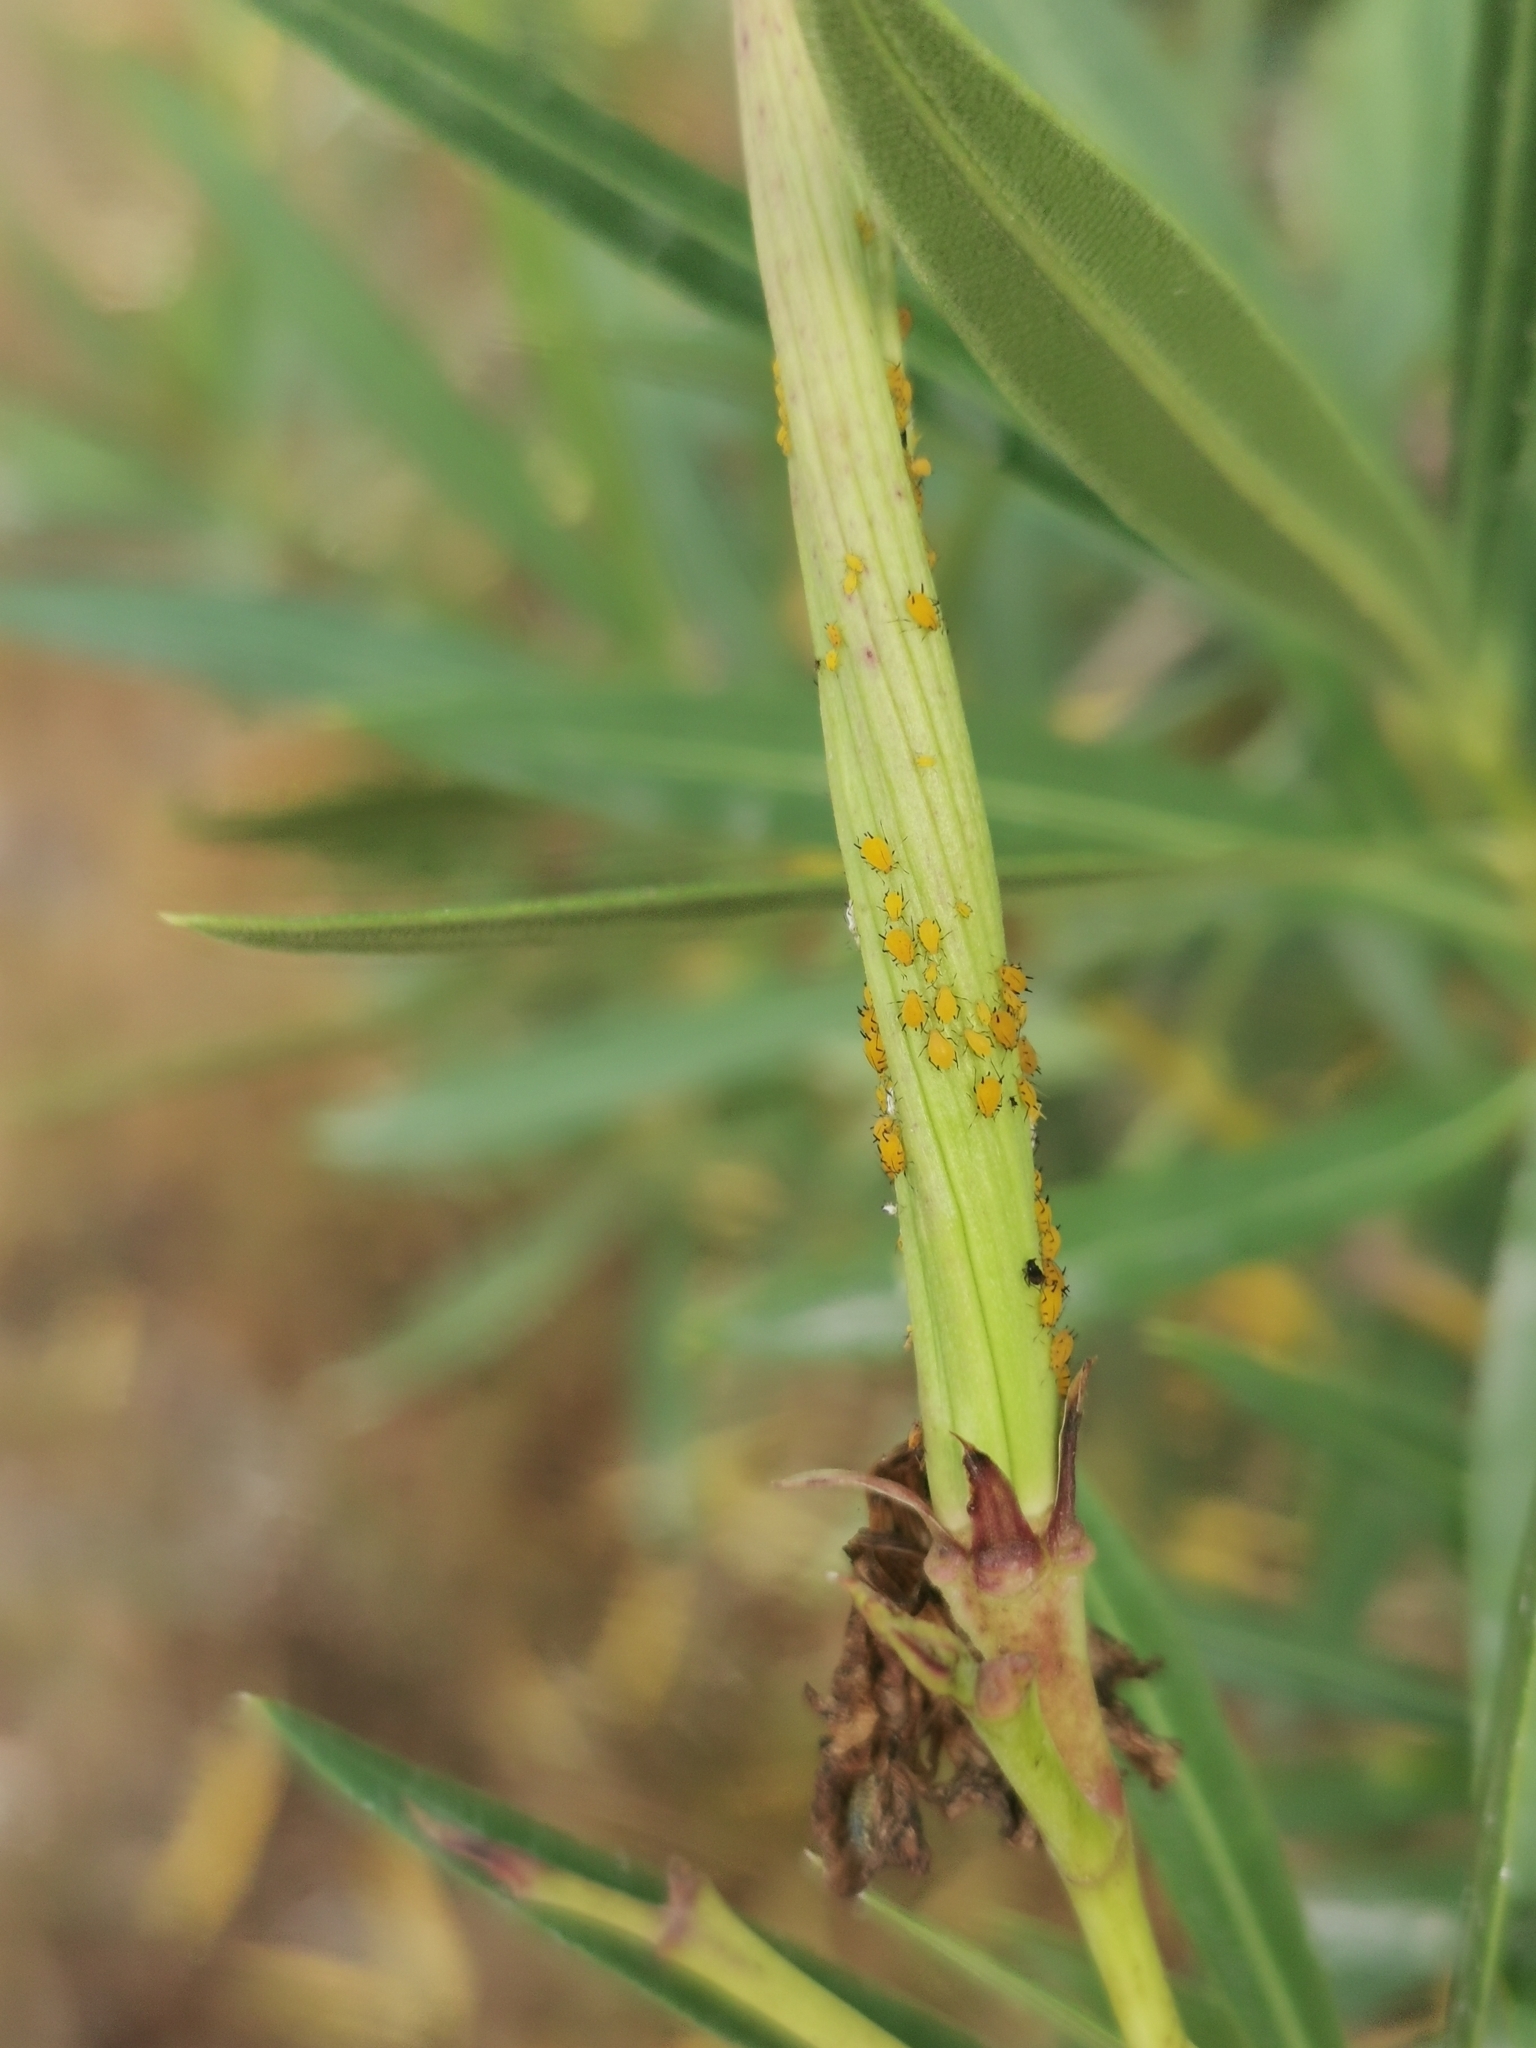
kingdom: Animalia
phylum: Arthropoda
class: Insecta
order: Hemiptera
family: Aphididae
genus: Aphis
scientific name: Aphis nerii
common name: Oleander aphid
